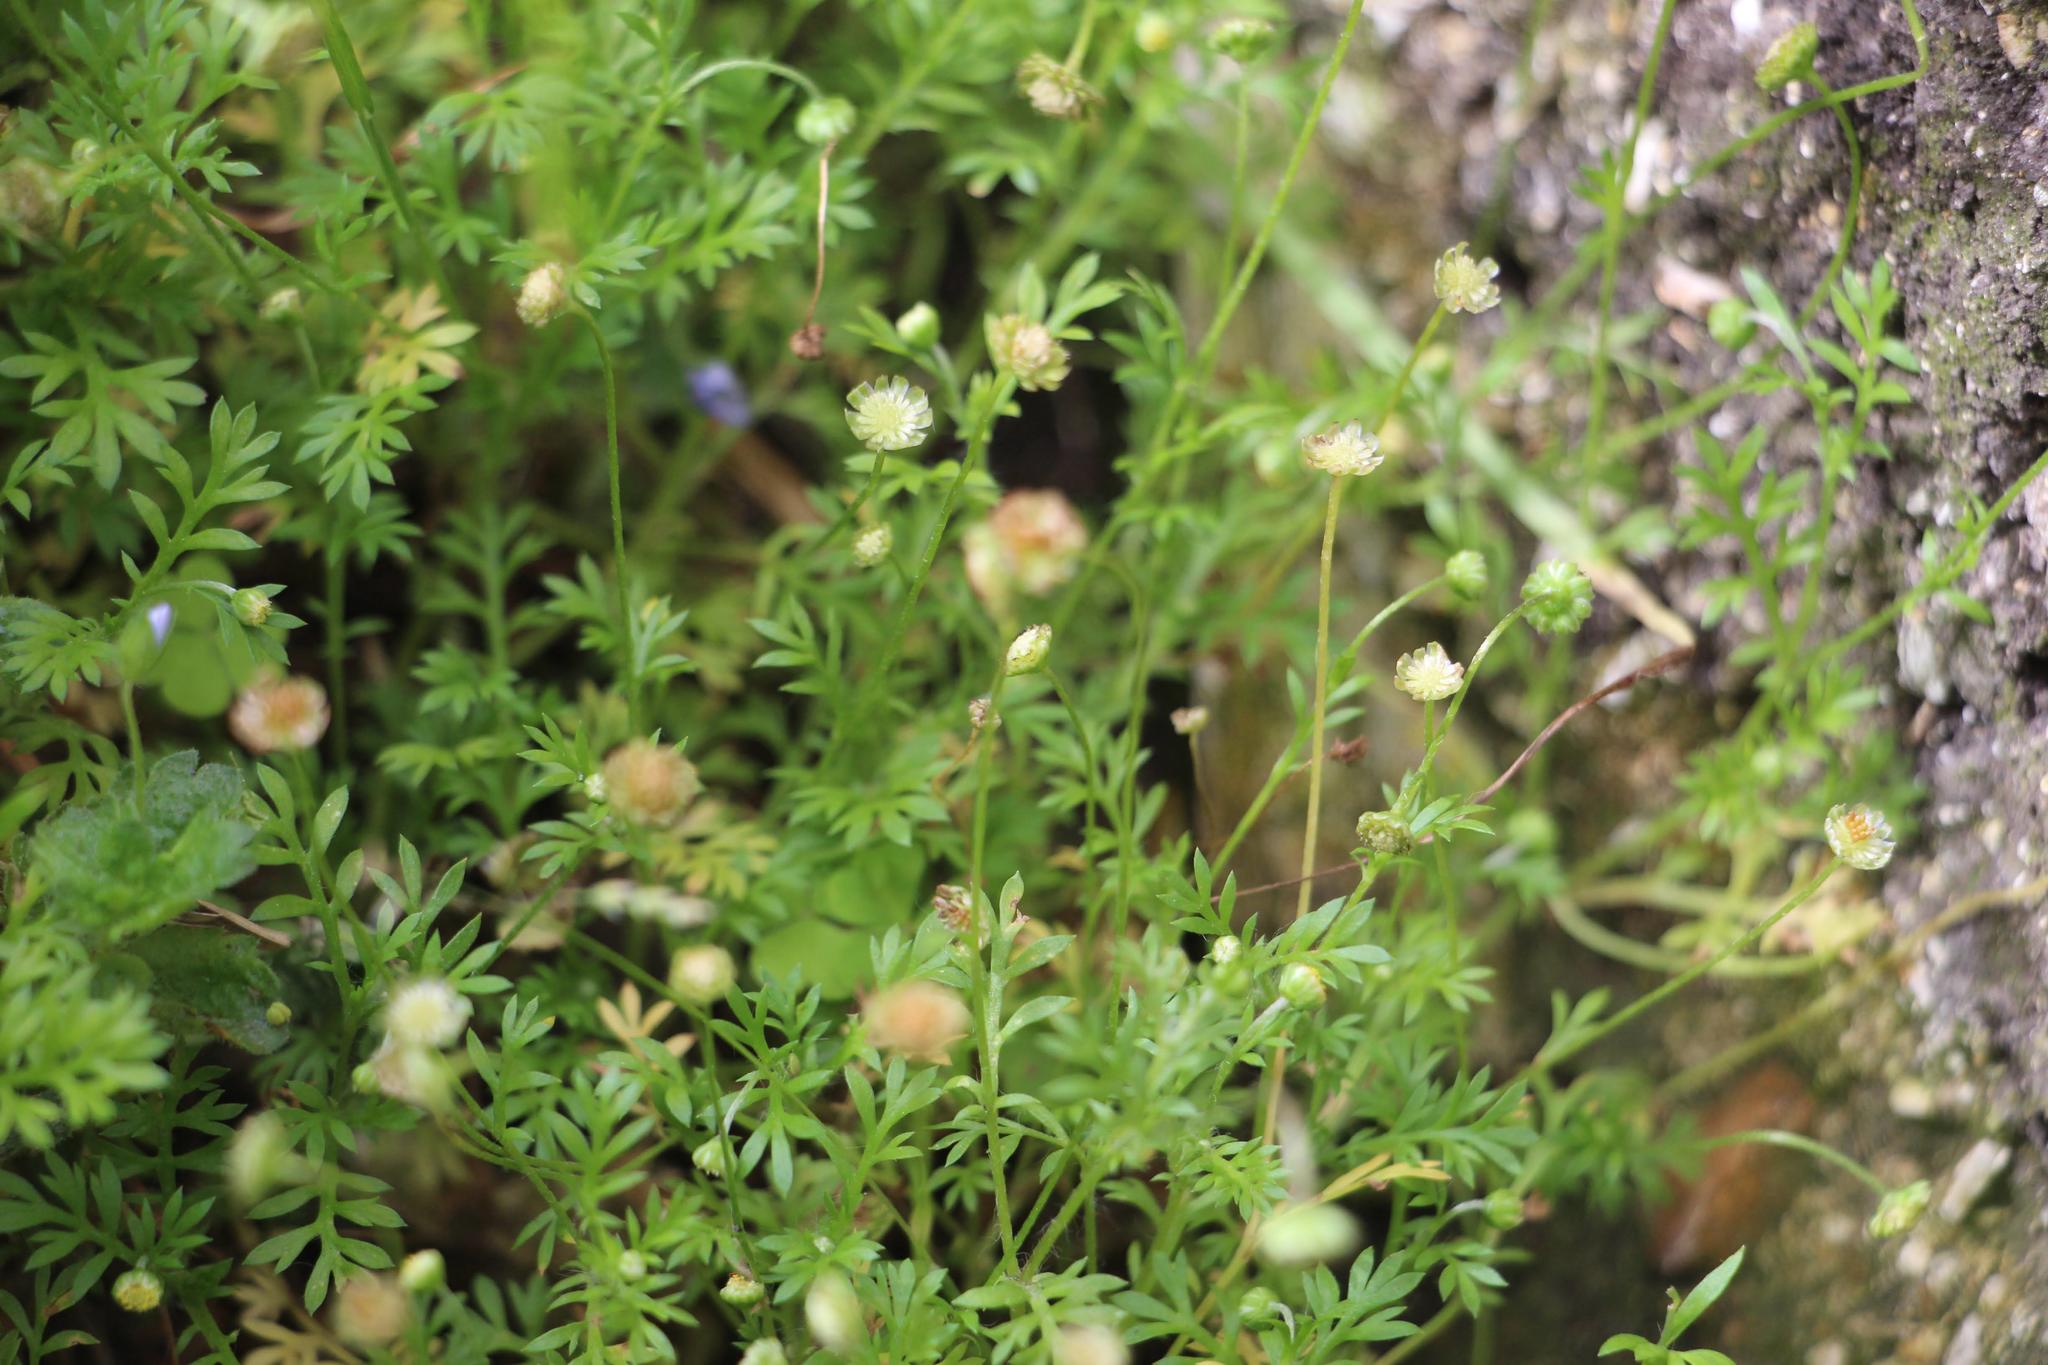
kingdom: Plantae
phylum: Tracheophyta
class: Magnoliopsida
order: Asterales
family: Asteraceae
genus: Cotula
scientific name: Cotula australis
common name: Australian waterbuttons
